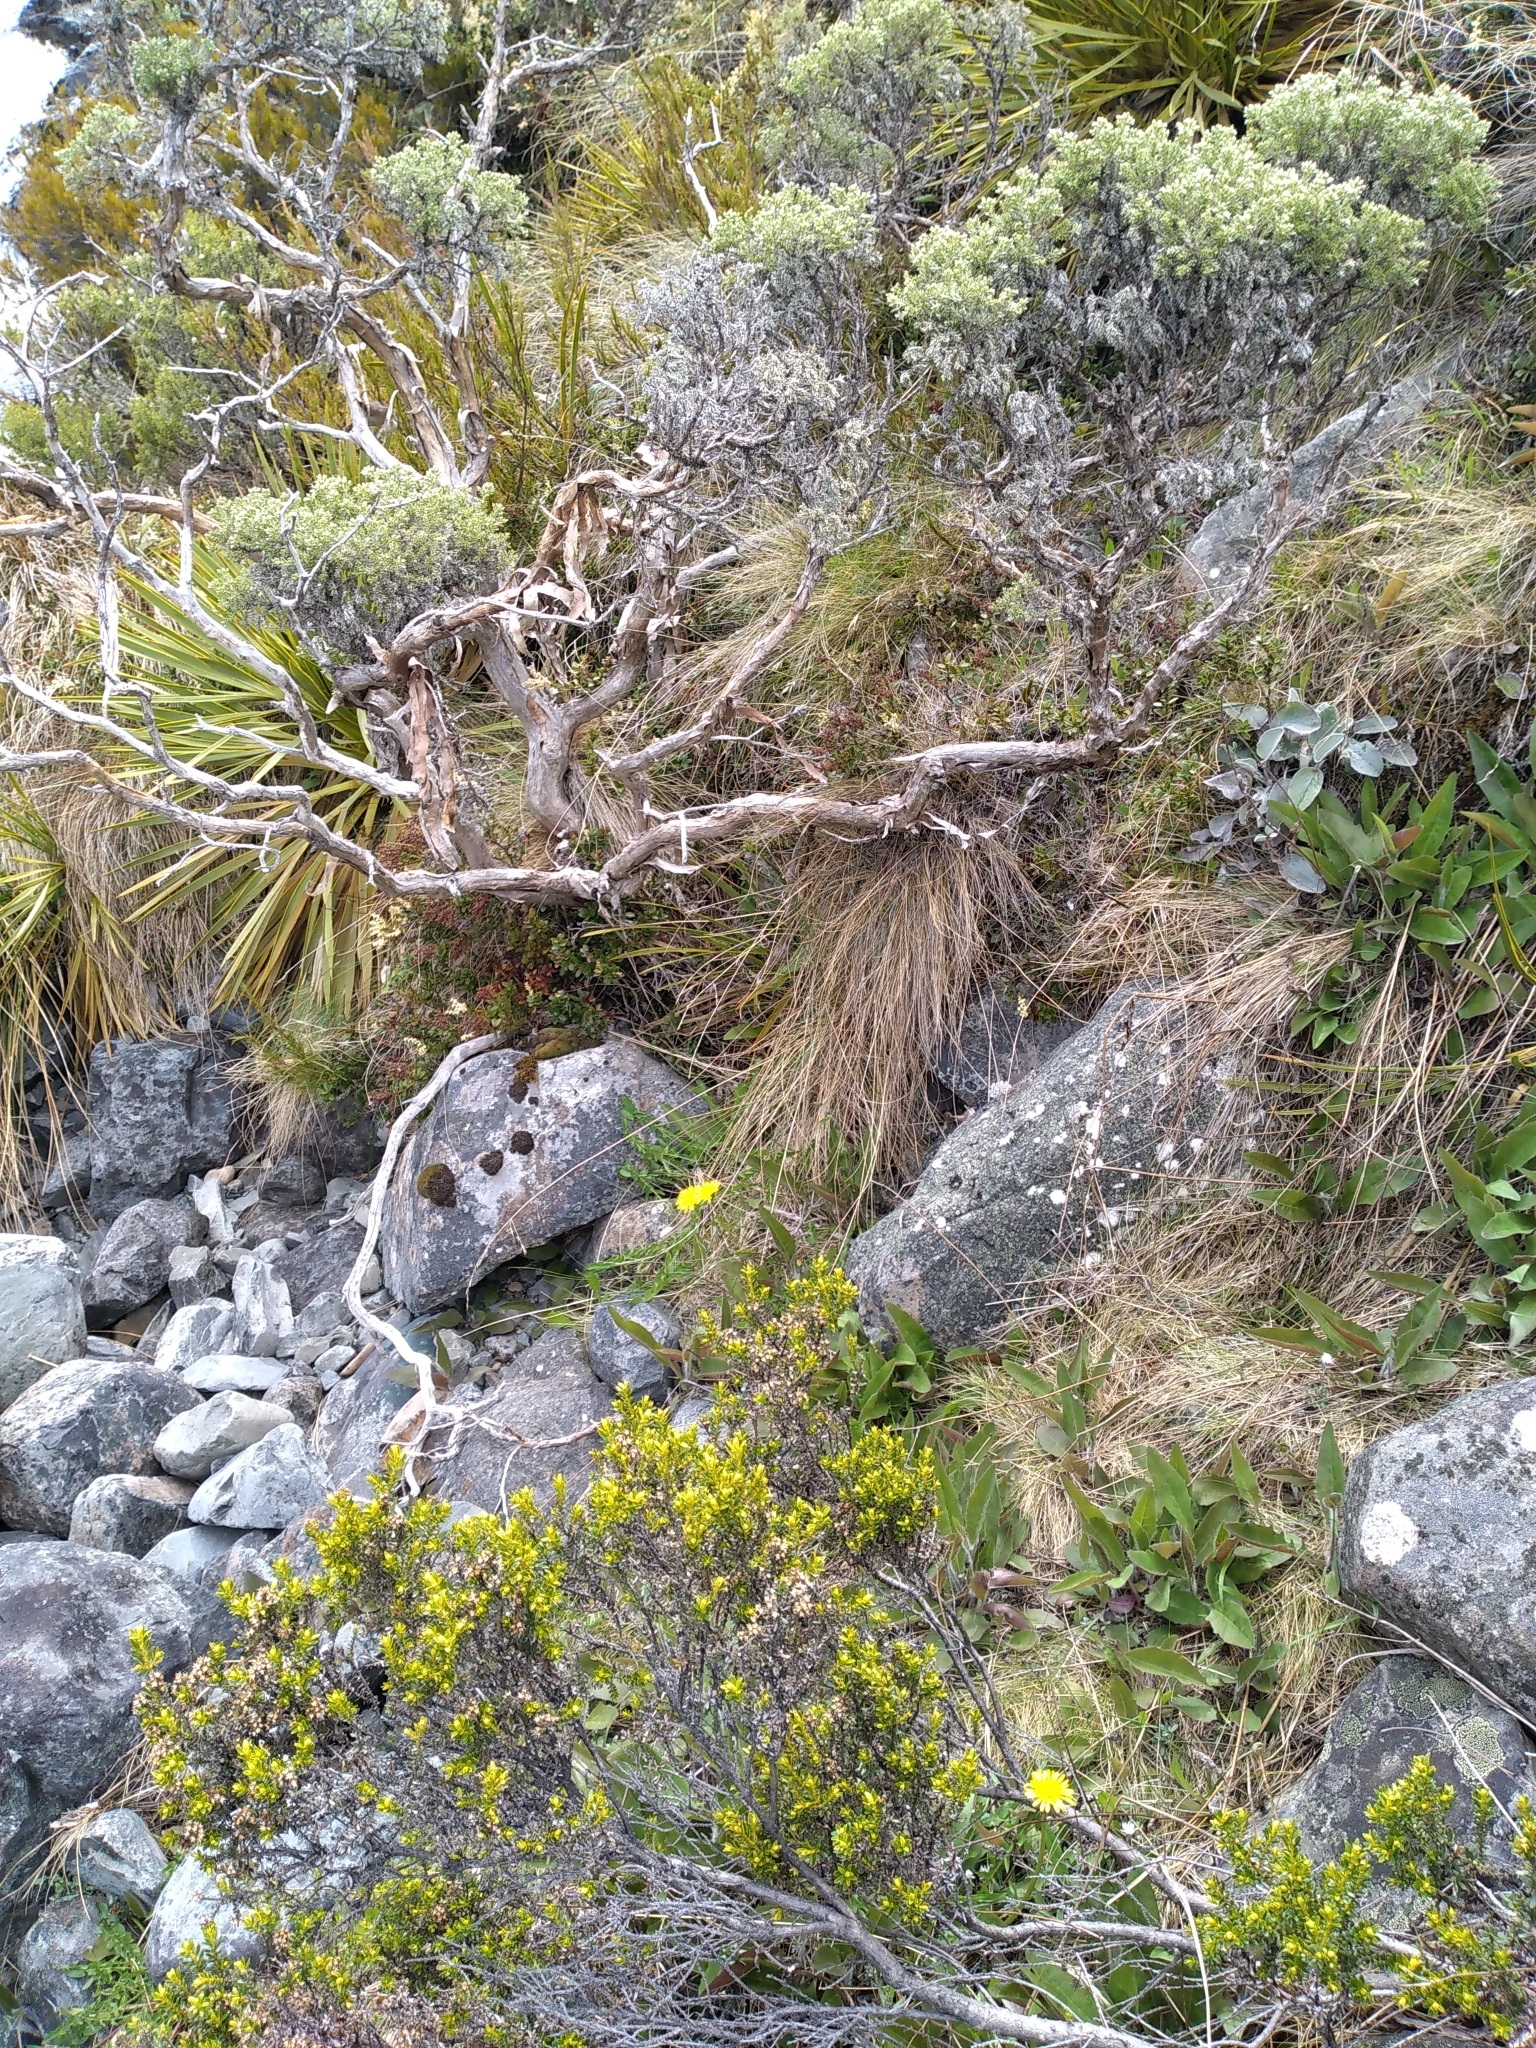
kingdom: Plantae
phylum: Tracheophyta
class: Magnoliopsida
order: Asterales
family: Asteraceae
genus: Ozothamnus
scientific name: Ozothamnus leptophyllus
